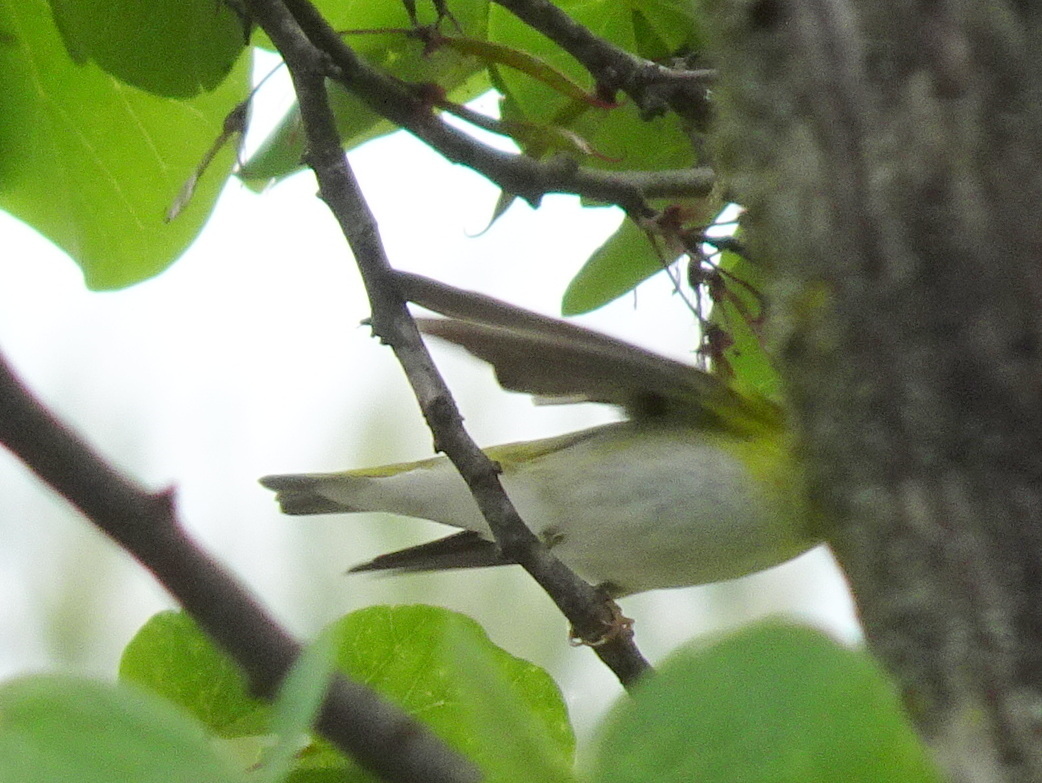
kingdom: Animalia
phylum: Chordata
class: Aves
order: Passeriformes
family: Phylloscopidae
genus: Phylloscopus
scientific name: Phylloscopus sibillatrix
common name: Wood warbler
